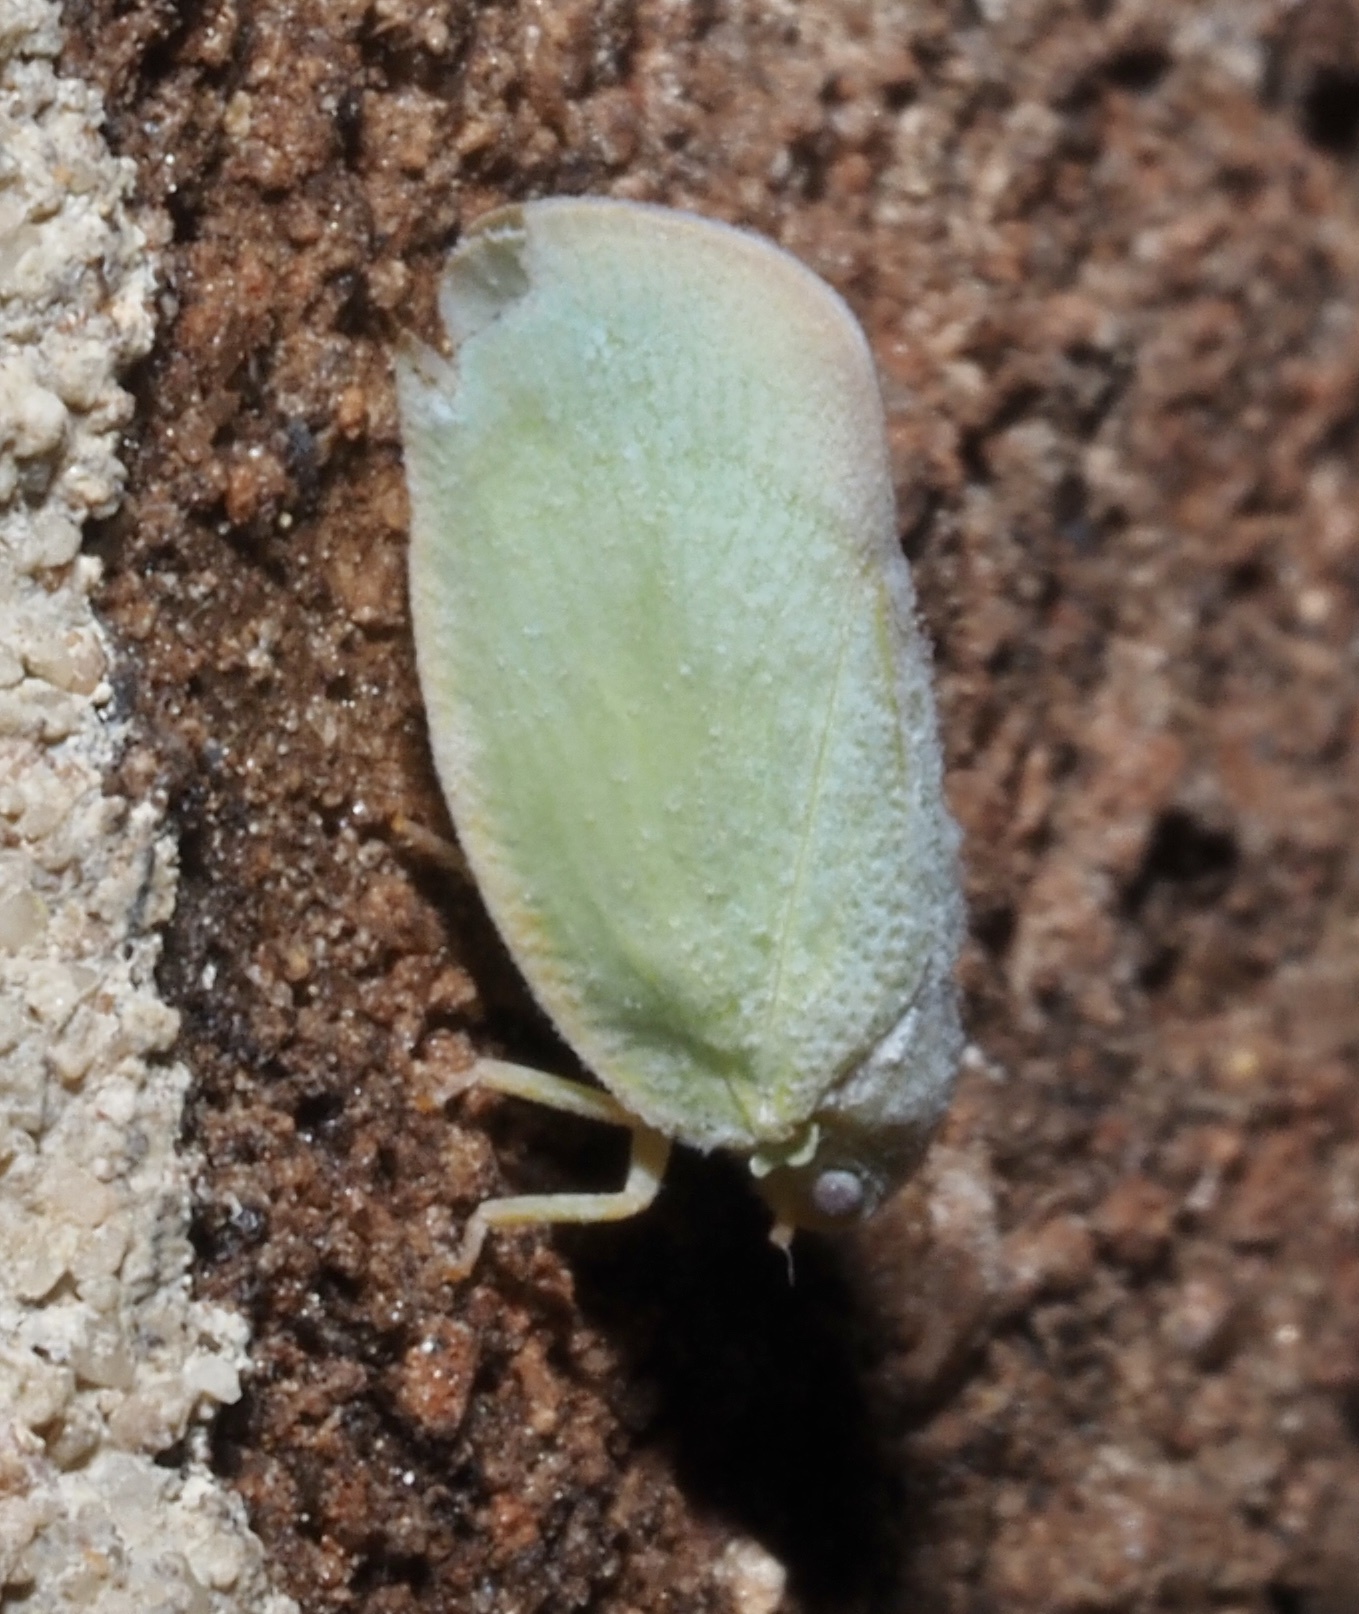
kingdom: Animalia
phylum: Arthropoda
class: Insecta
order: Hemiptera
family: Flatidae
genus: Ormenoides
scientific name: Ormenoides venusta
